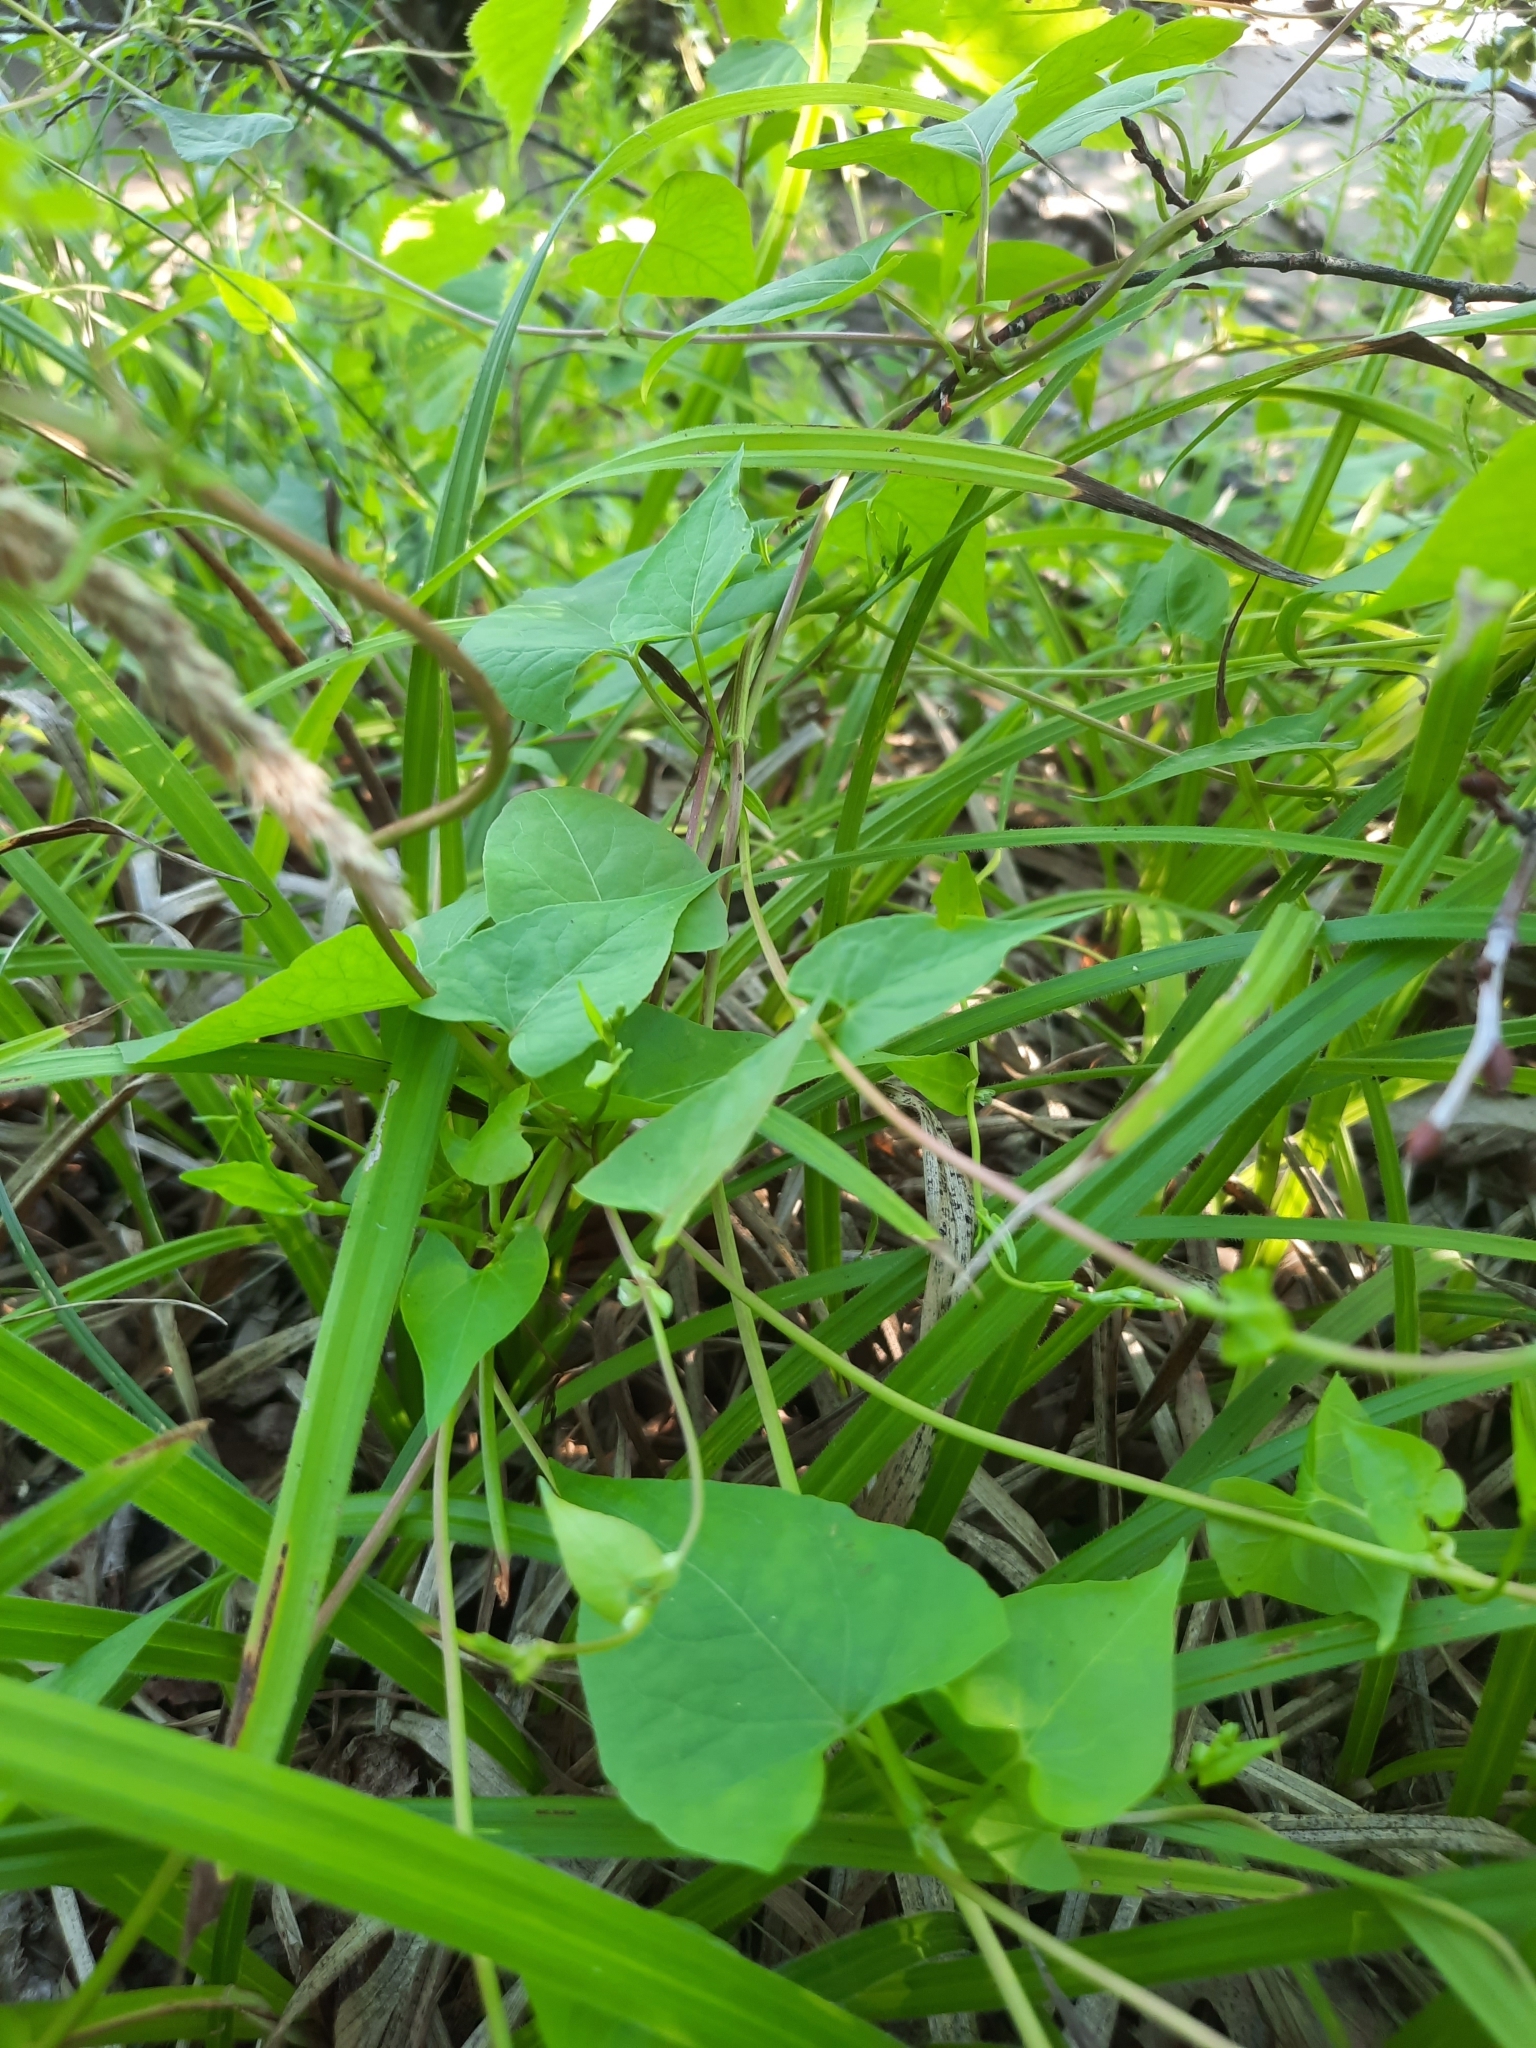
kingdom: Plantae
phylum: Tracheophyta
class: Magnoliopsida
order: Caryophyllales
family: Polygonaceae
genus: Fallopia
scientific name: Fallopia convolvulus
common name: Black bindweed
